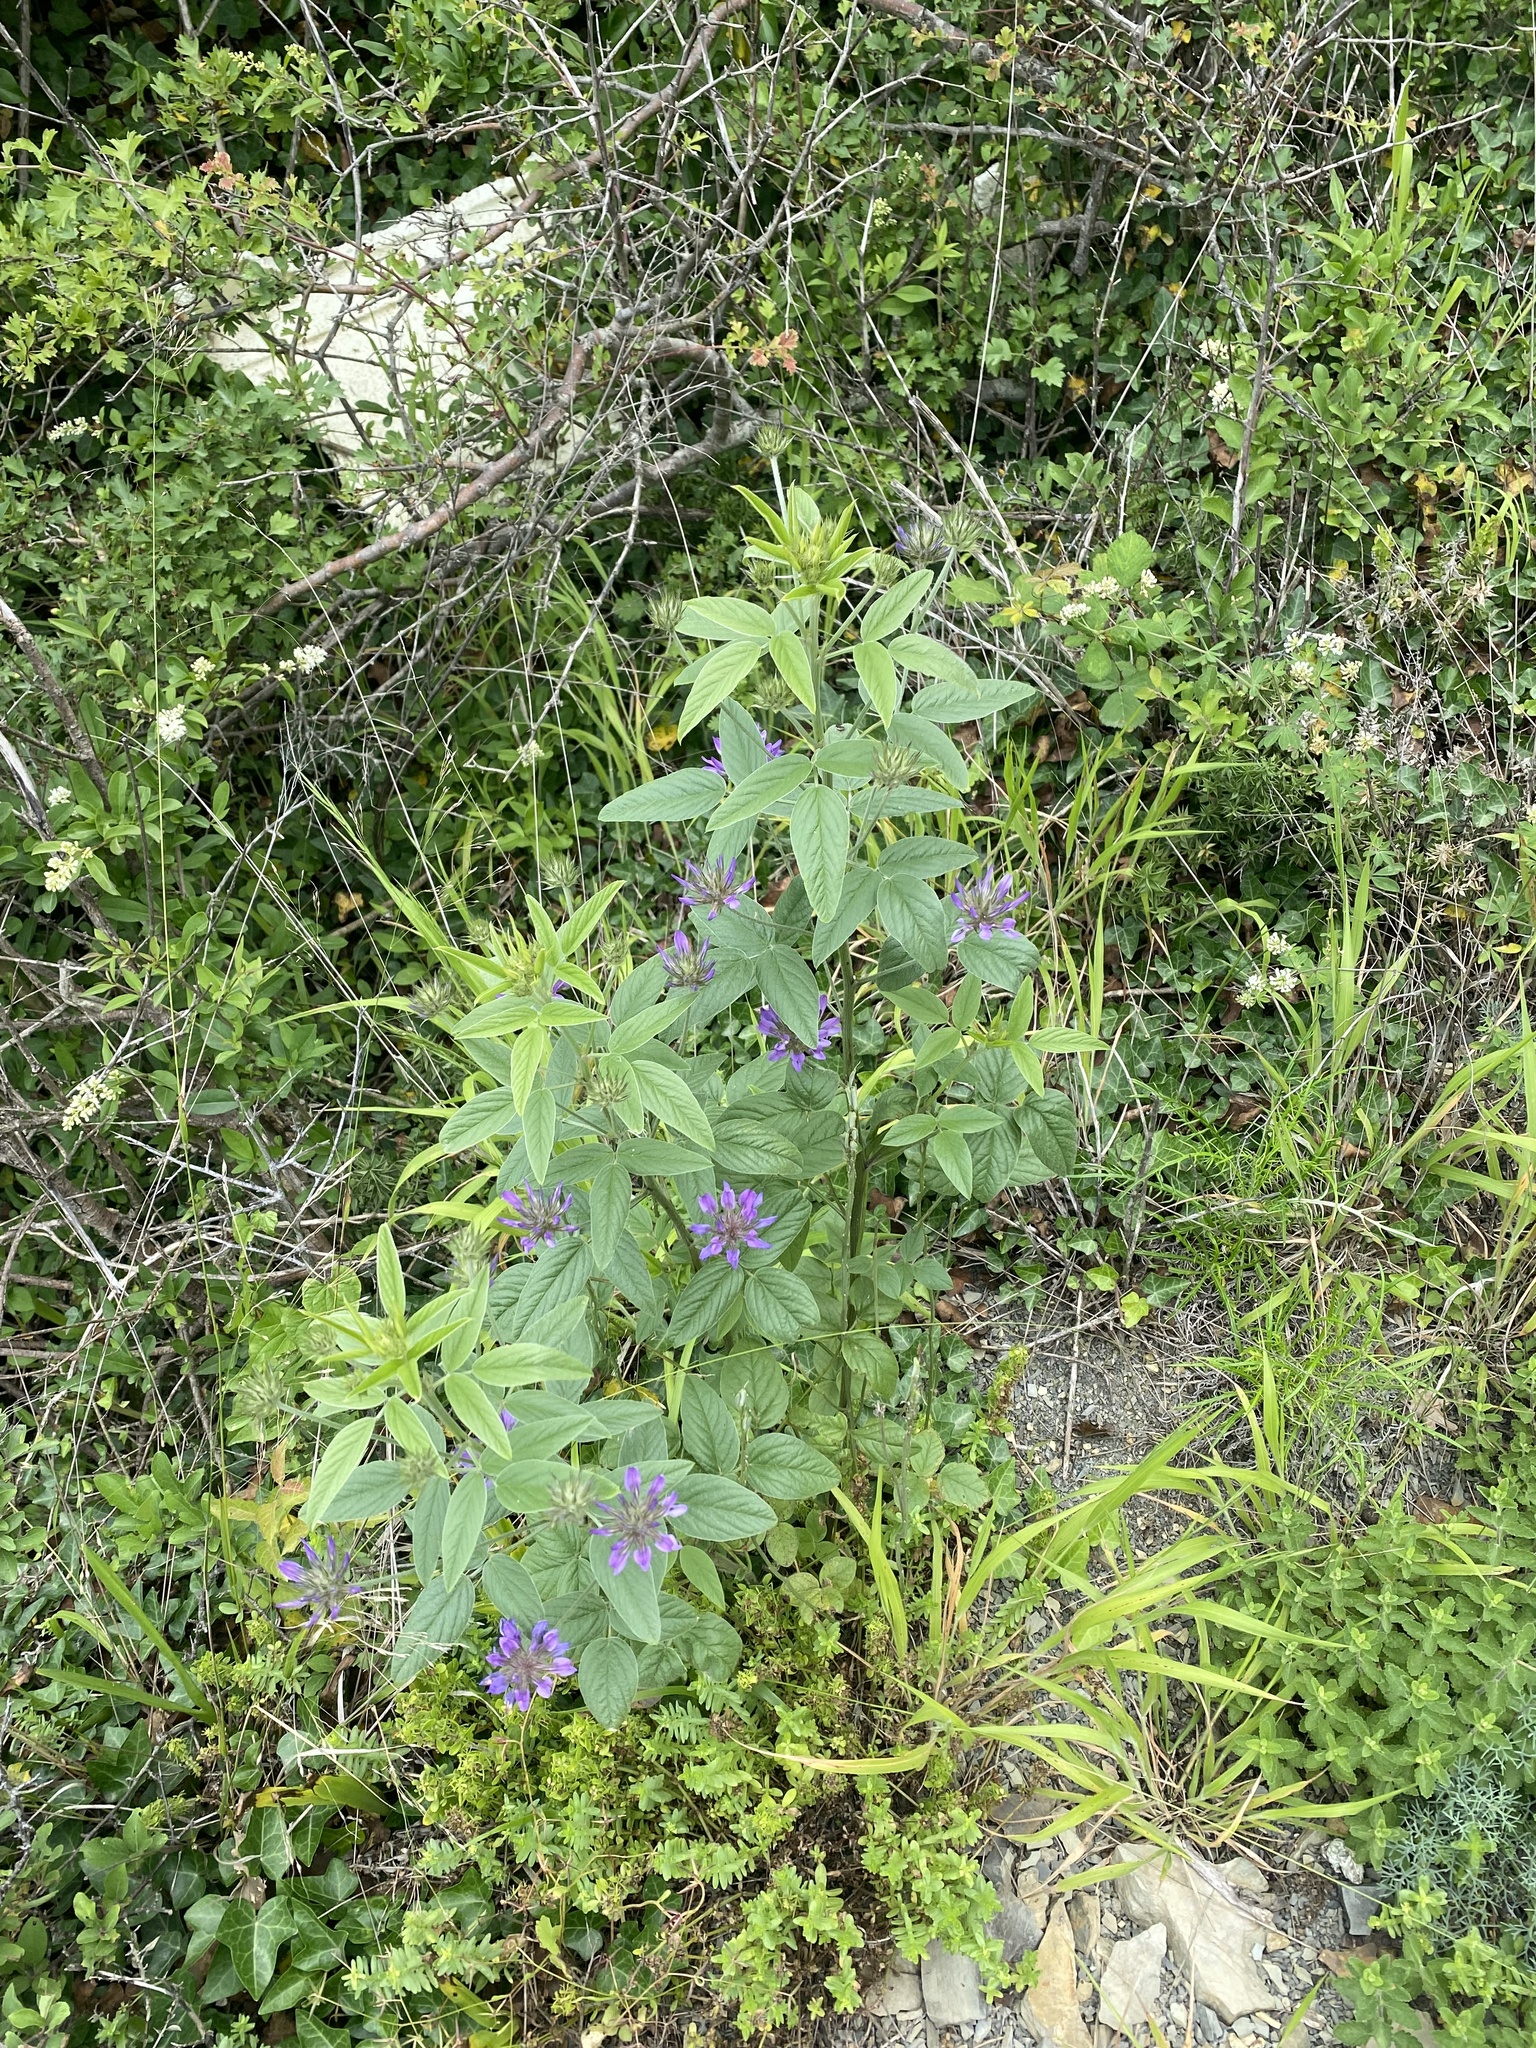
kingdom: Plantae
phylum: Tracheophyta
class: Magnoliopsida
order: Fabales
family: Fabaceae
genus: Bituminaria
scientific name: Bituminaria bituminosa
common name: Arabian pea
